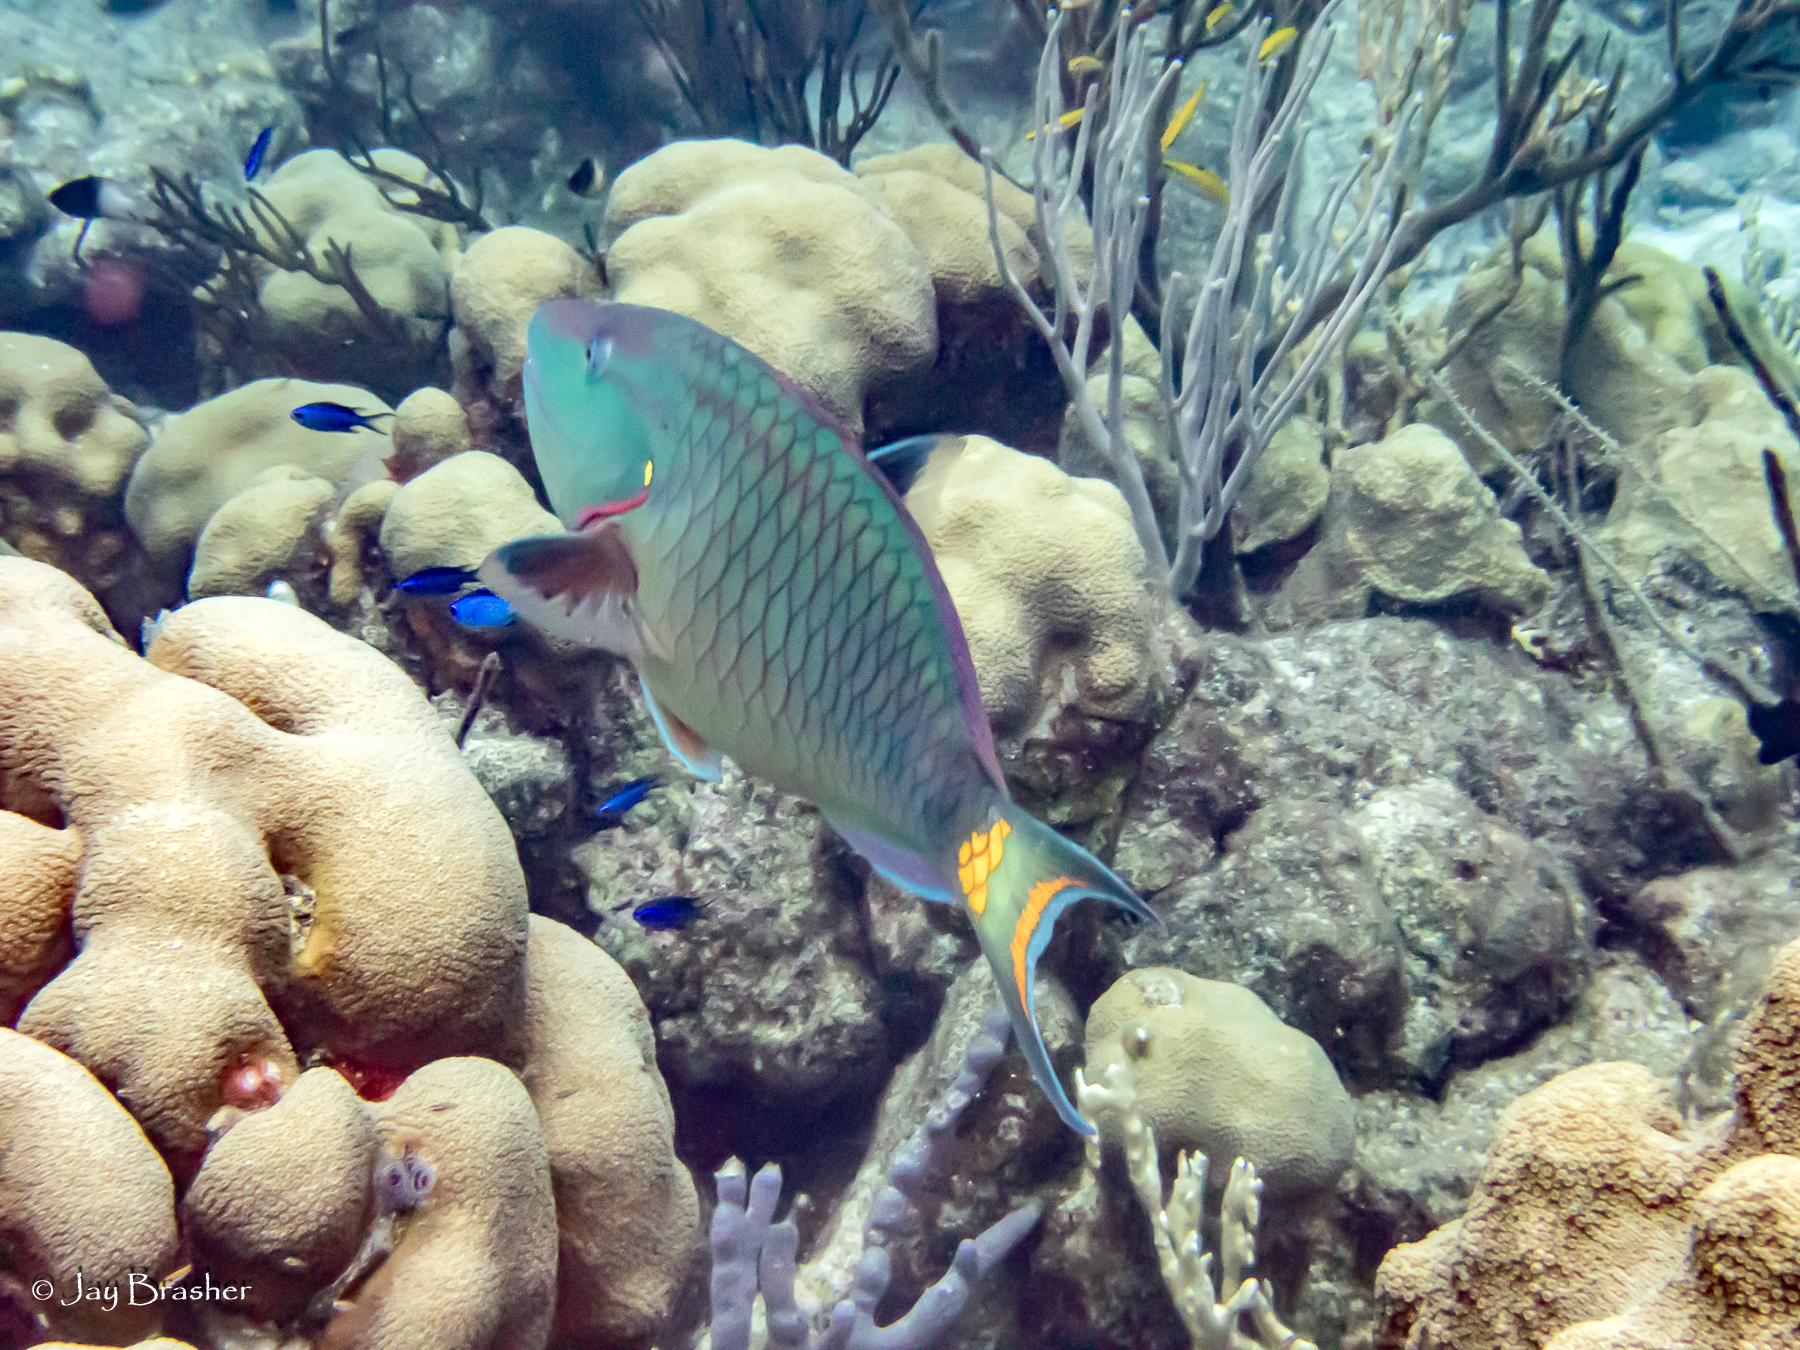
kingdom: Animalia
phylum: Cnidaria
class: Anthozoa
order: Scleractinia
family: Merulinidae
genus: Orbicella
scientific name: Orbicella annularis
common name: Boulder star coral
